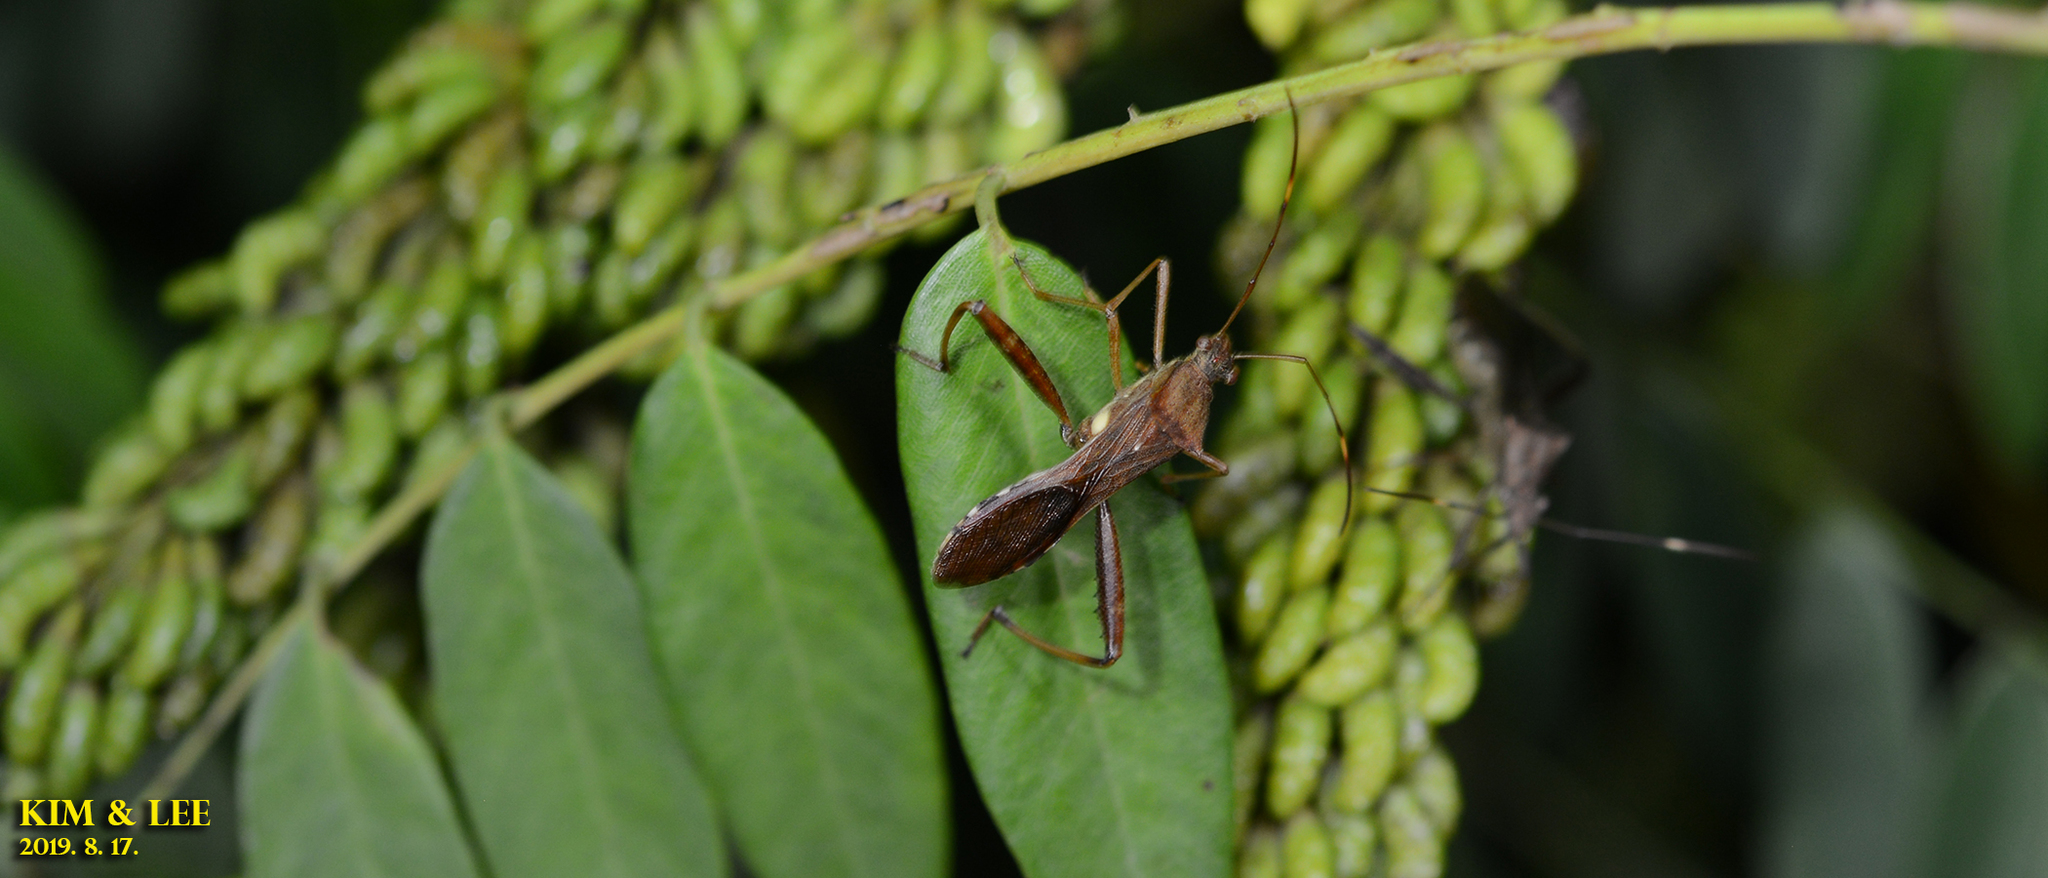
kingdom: Animalia
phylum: Arthropoda
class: Insecta
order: Hemiptera
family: Alydidae
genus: Riptortus
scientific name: Riptortus pedestris
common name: Bean bug
